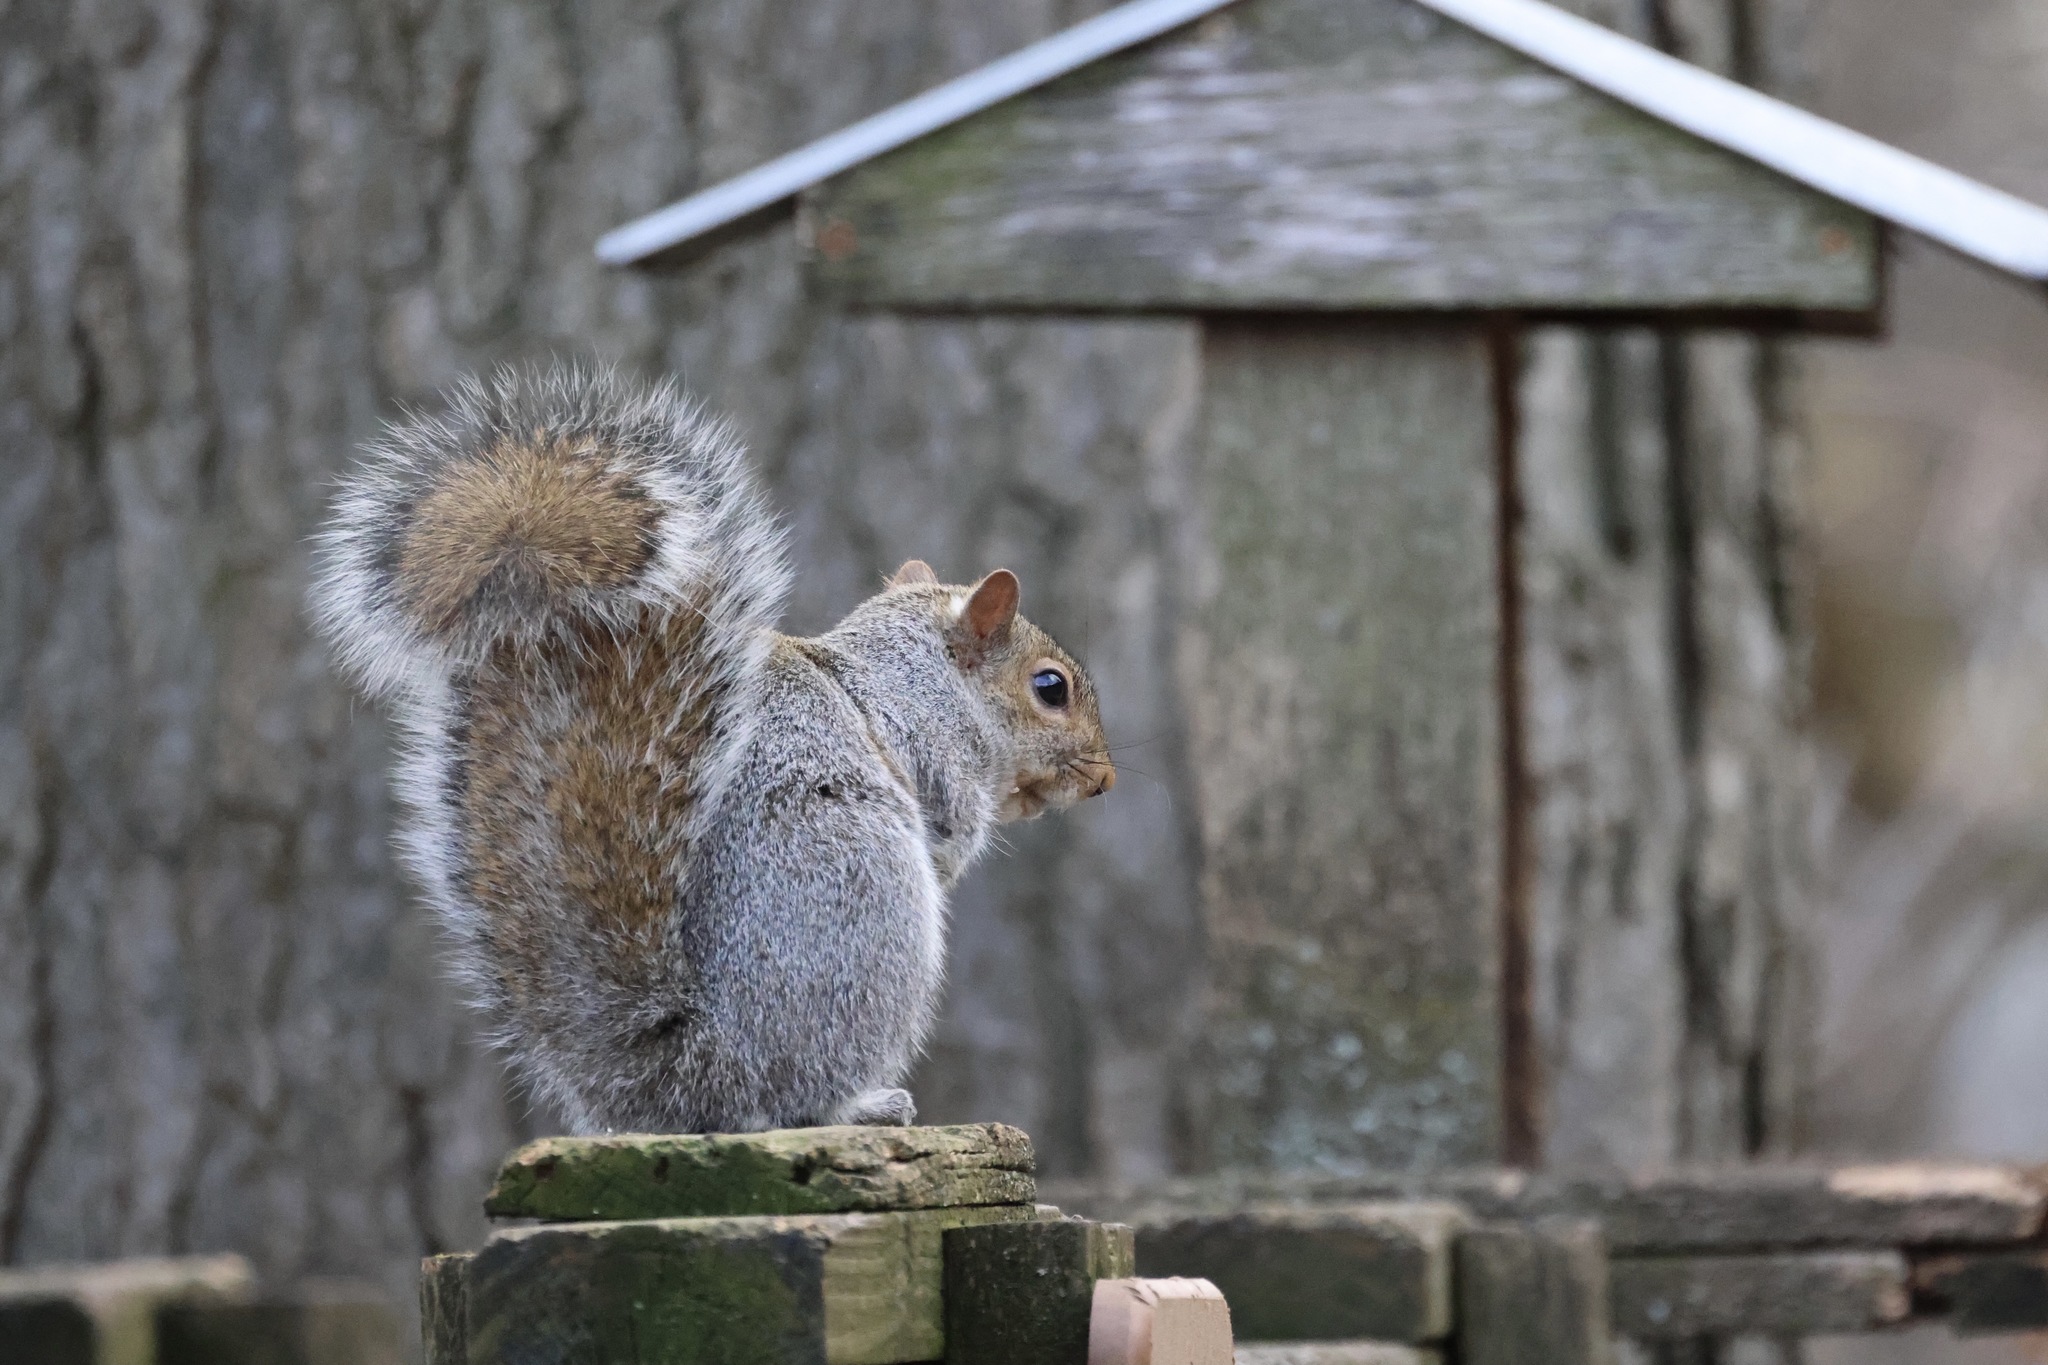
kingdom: Animalia
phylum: Chordata
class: Mammalia
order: Rodentia
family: Sciuridae
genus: Sciurus
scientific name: Sciurus carolinensis
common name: Eastern gray squirrel
